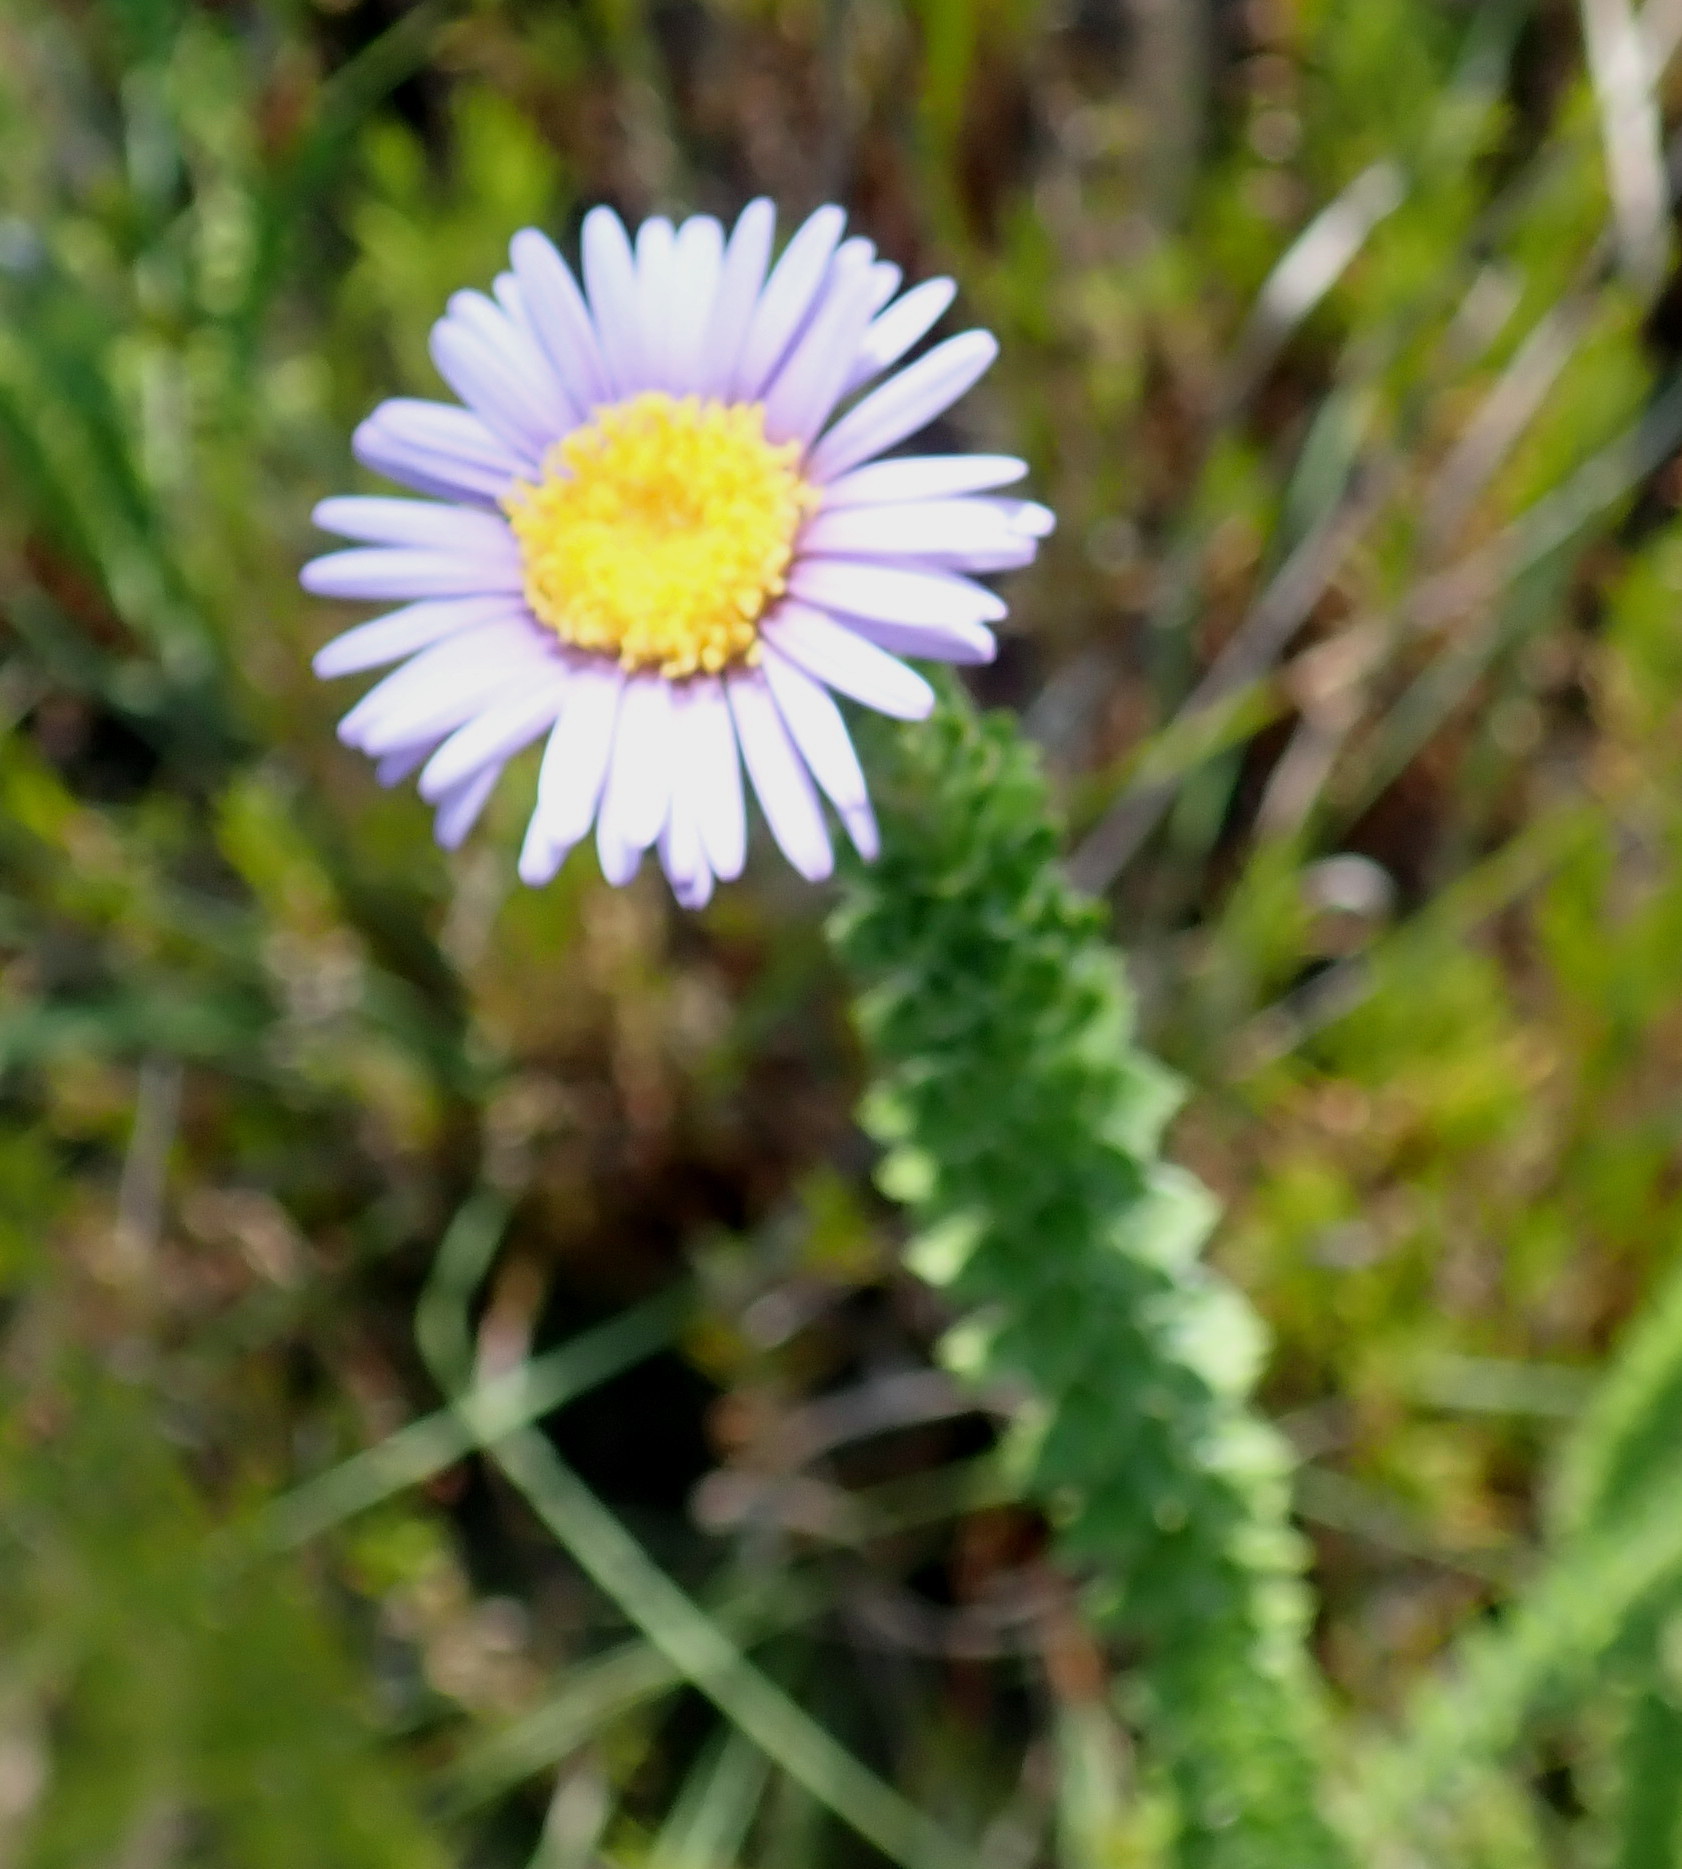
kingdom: Plantae
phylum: Tracheophyta
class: Magnoliopsida
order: Asterales
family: Asteraceae
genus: Felicia
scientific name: Felicia echinata
